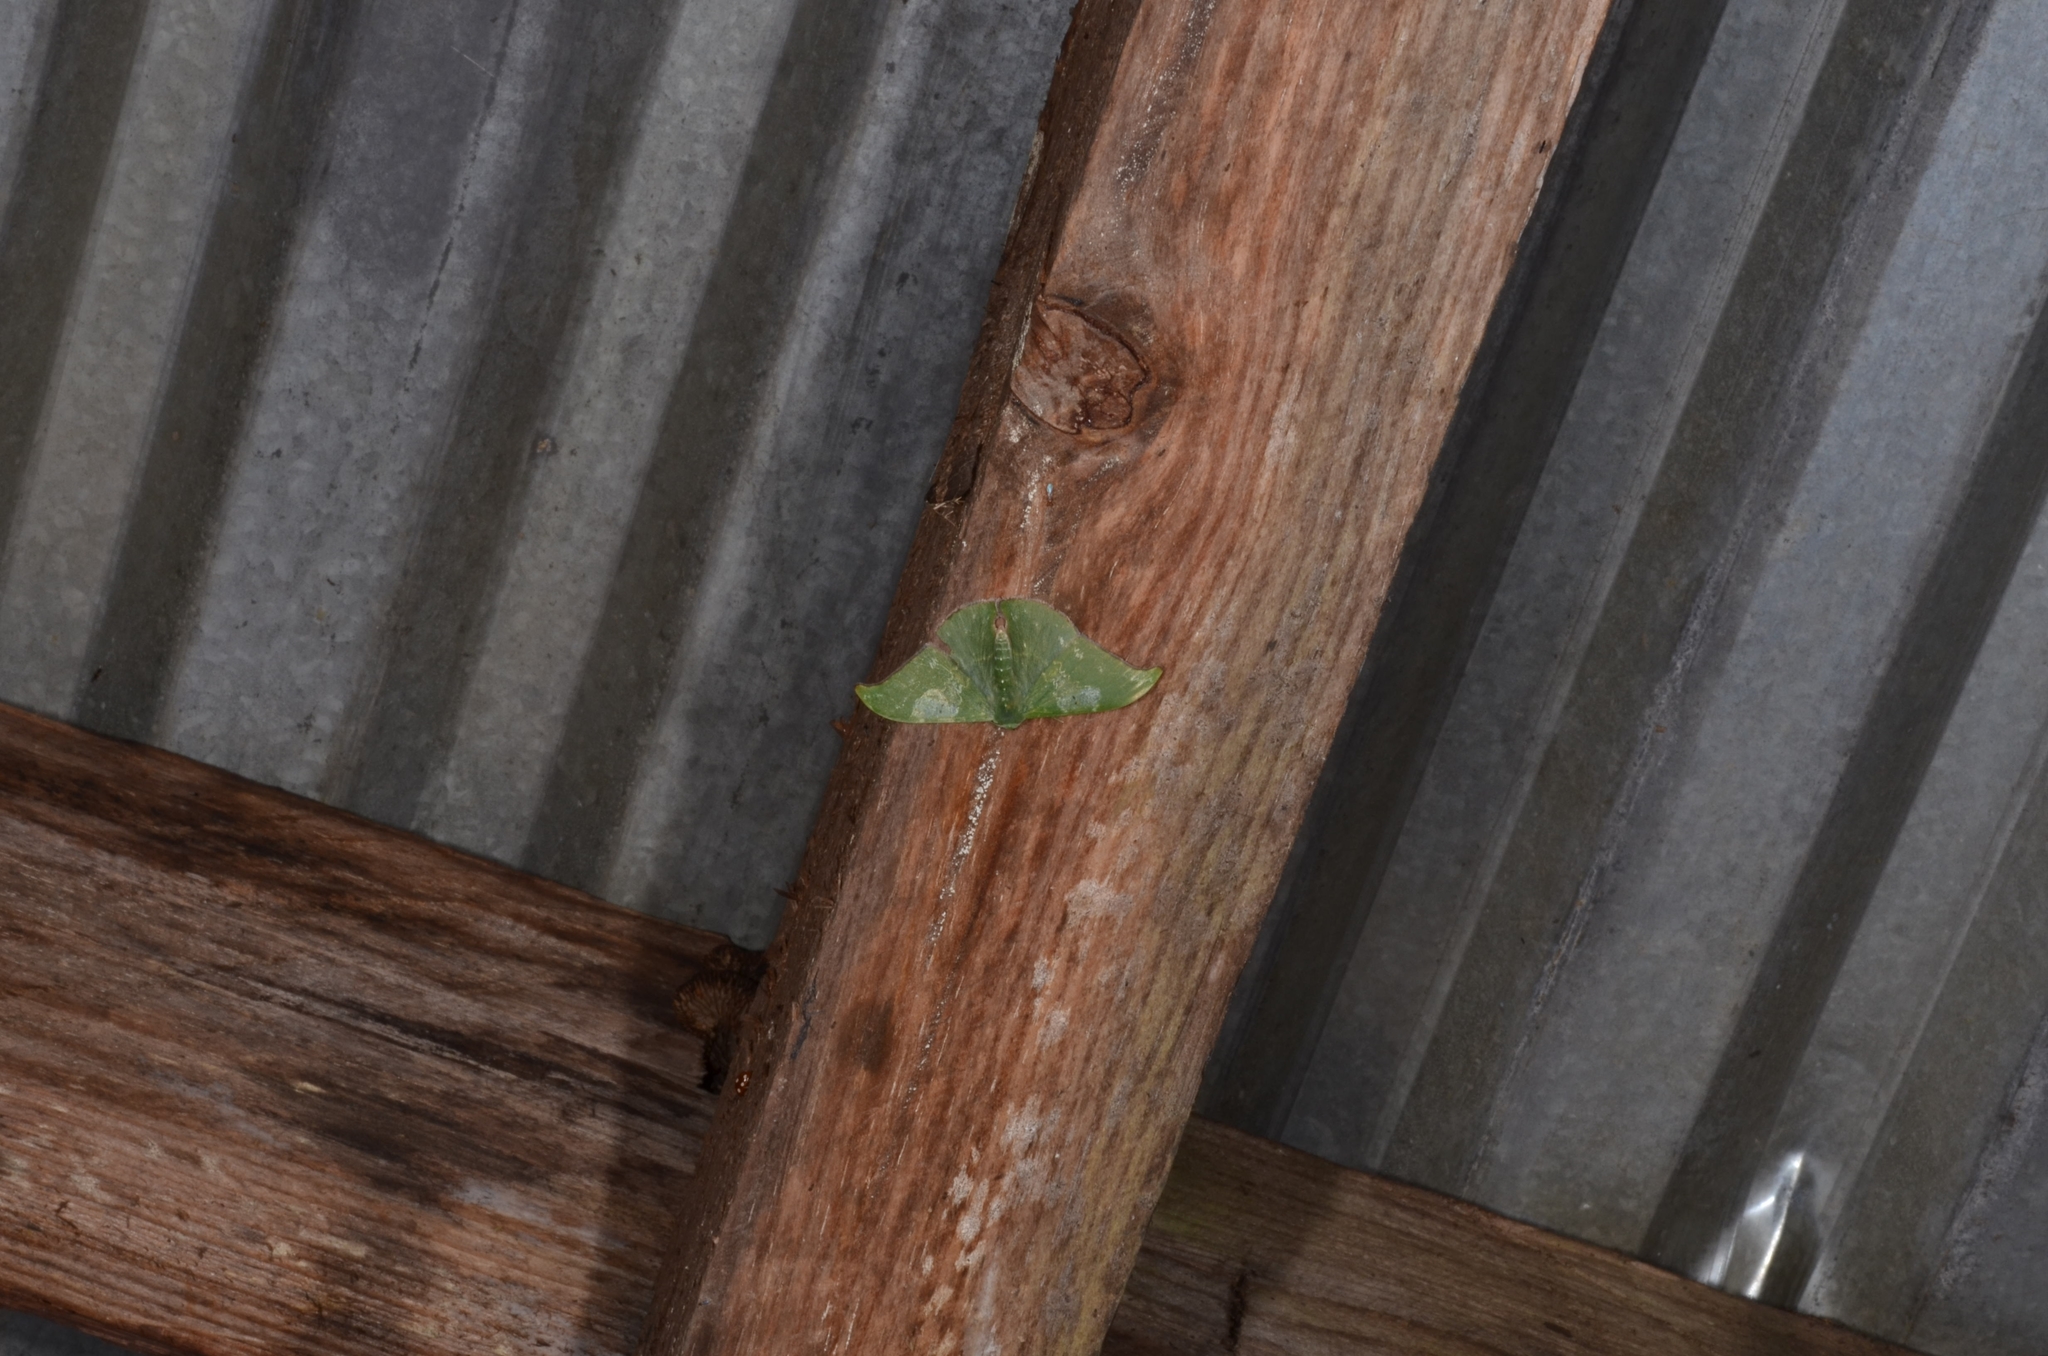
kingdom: Animalia
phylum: Arthropoda
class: Insecta
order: Lepidoptera
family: Geometridae
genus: Tanaorhinus
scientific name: Tanaorhinus rafflesii
